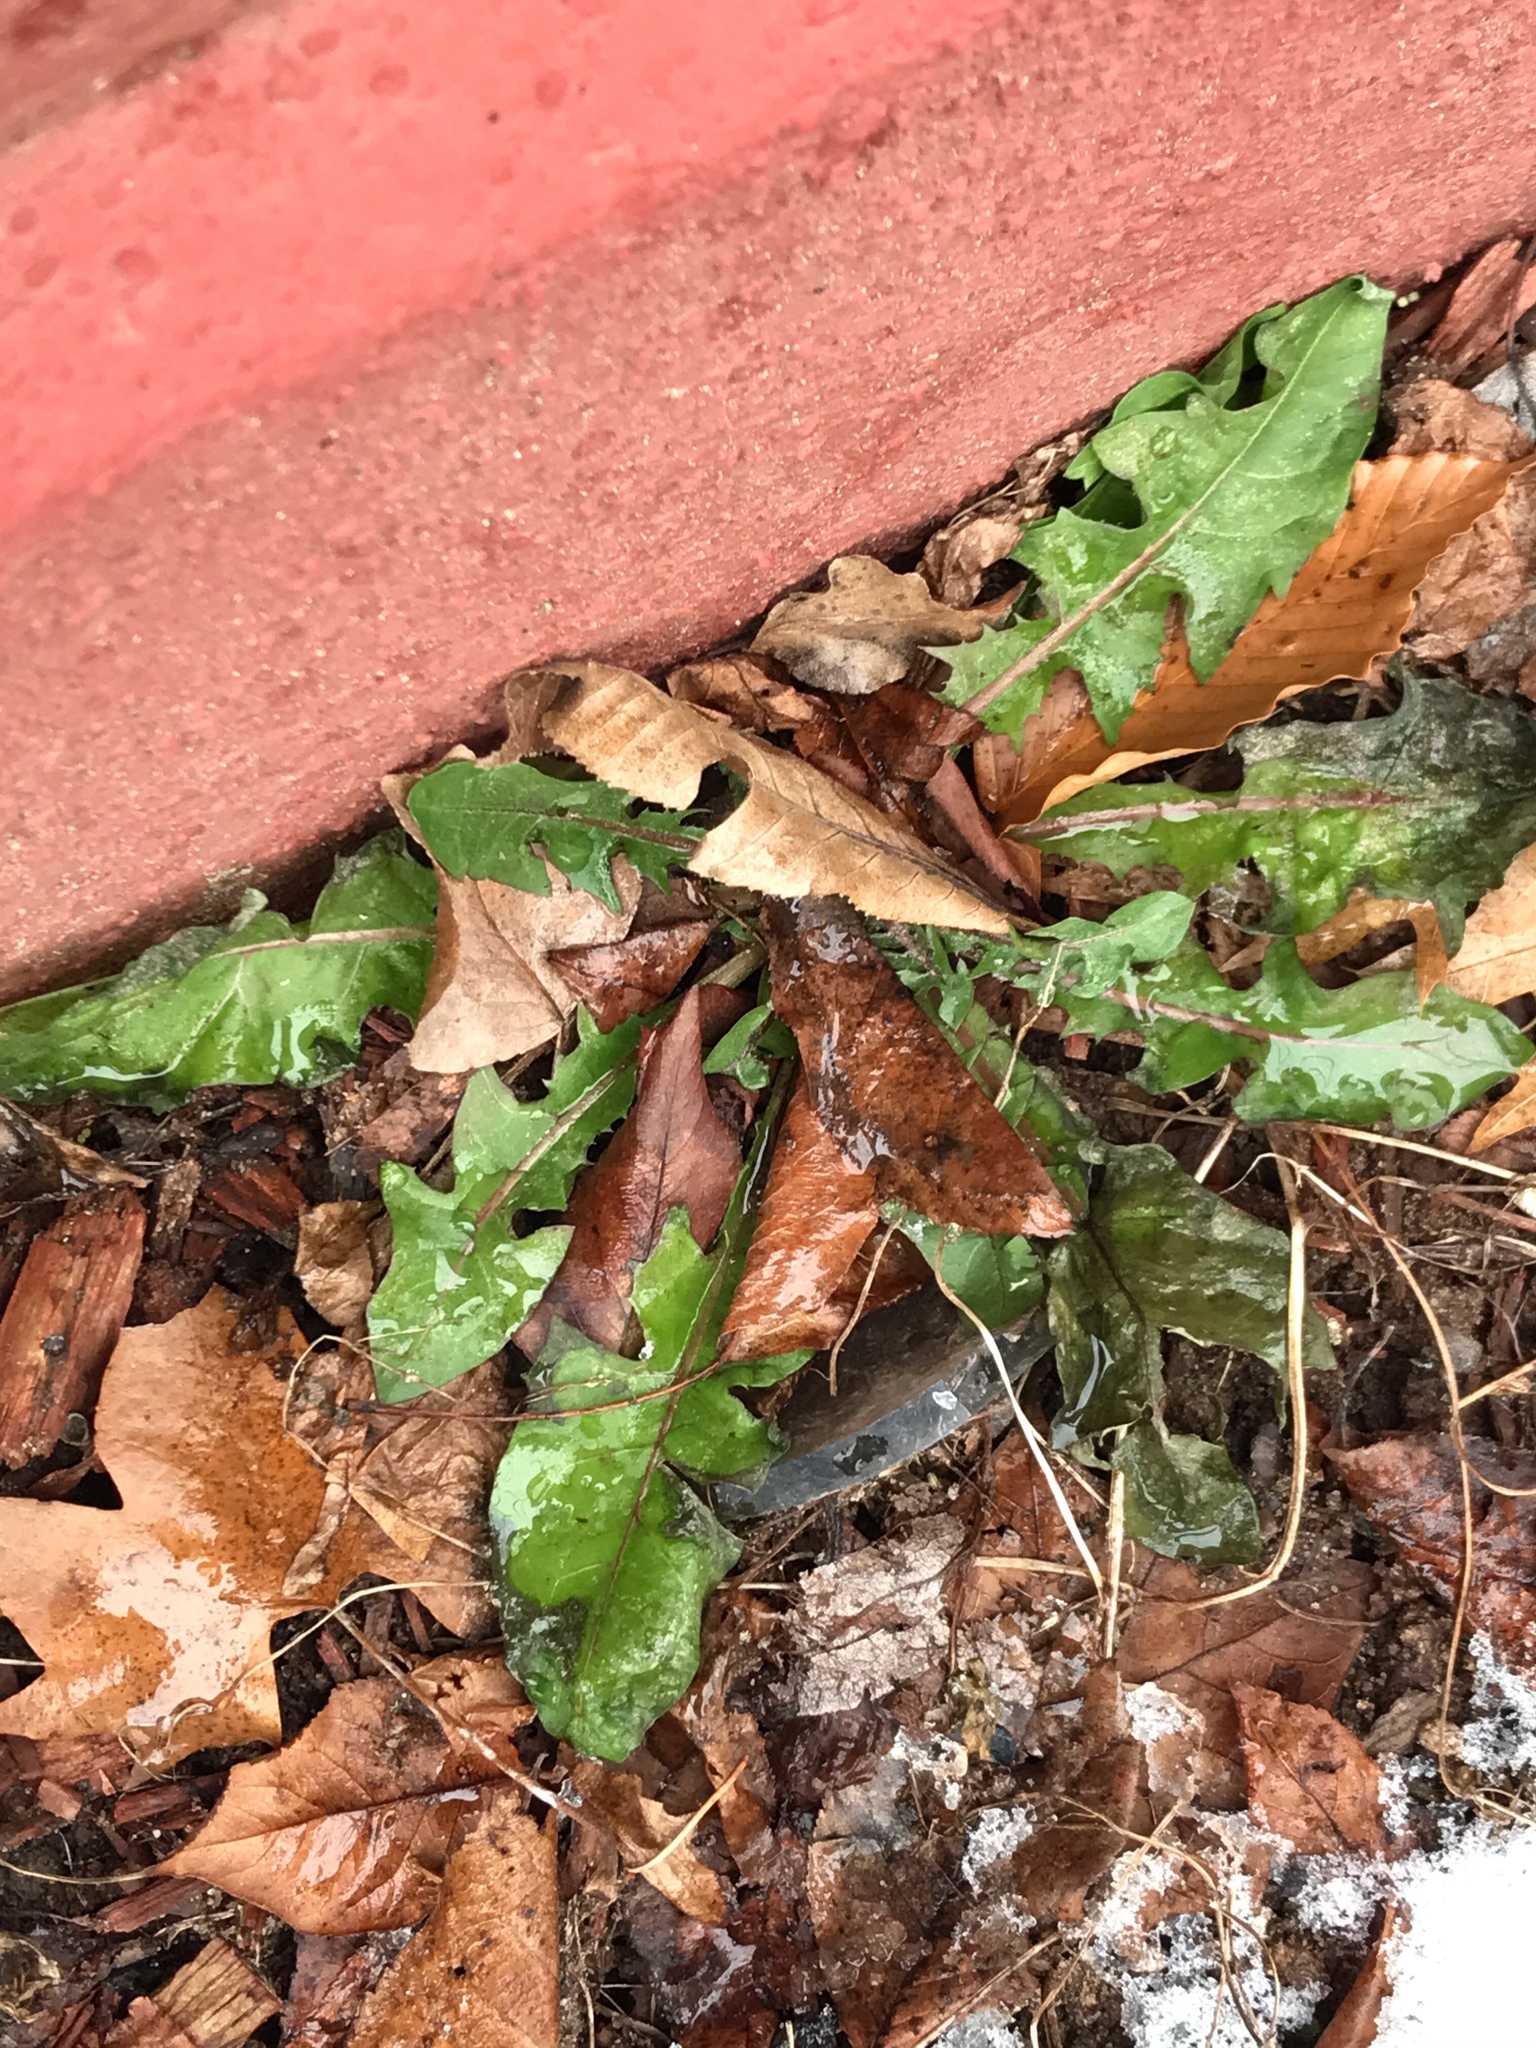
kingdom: Plantae
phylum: Tracheophyta
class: Magnoliopsida
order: Asterales
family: Asteraceae
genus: Taraxacum
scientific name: Taraxacum
